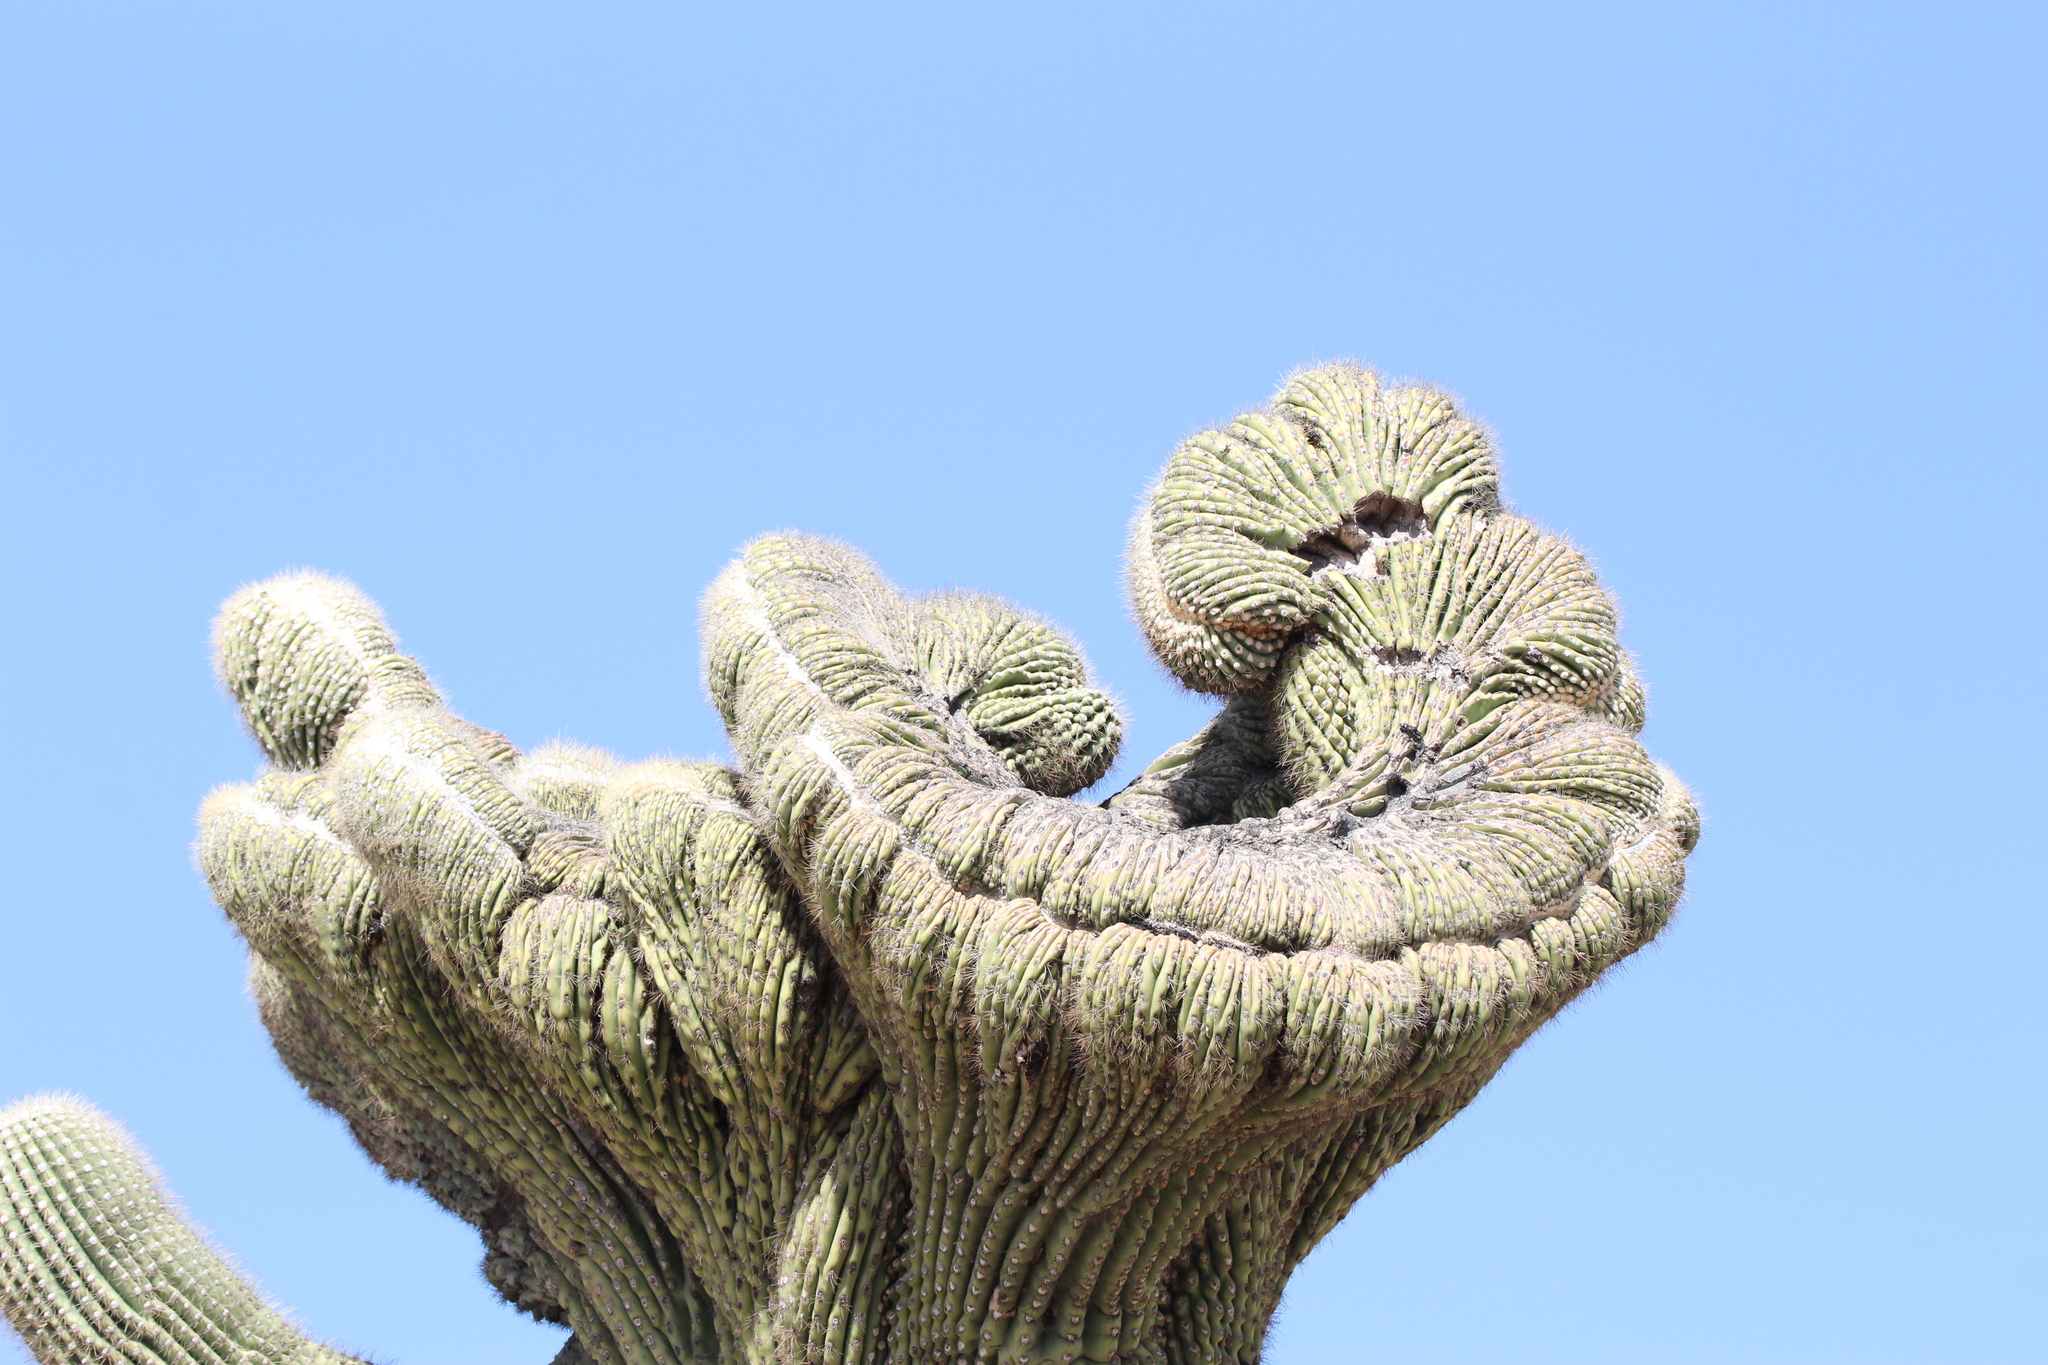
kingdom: Plantae
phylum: Tracheophyta
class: Magnoliopsida
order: Caryophyllales
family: Cactaceae
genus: Carnegiea
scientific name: Carnegiea gigantea
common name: Saguaro
